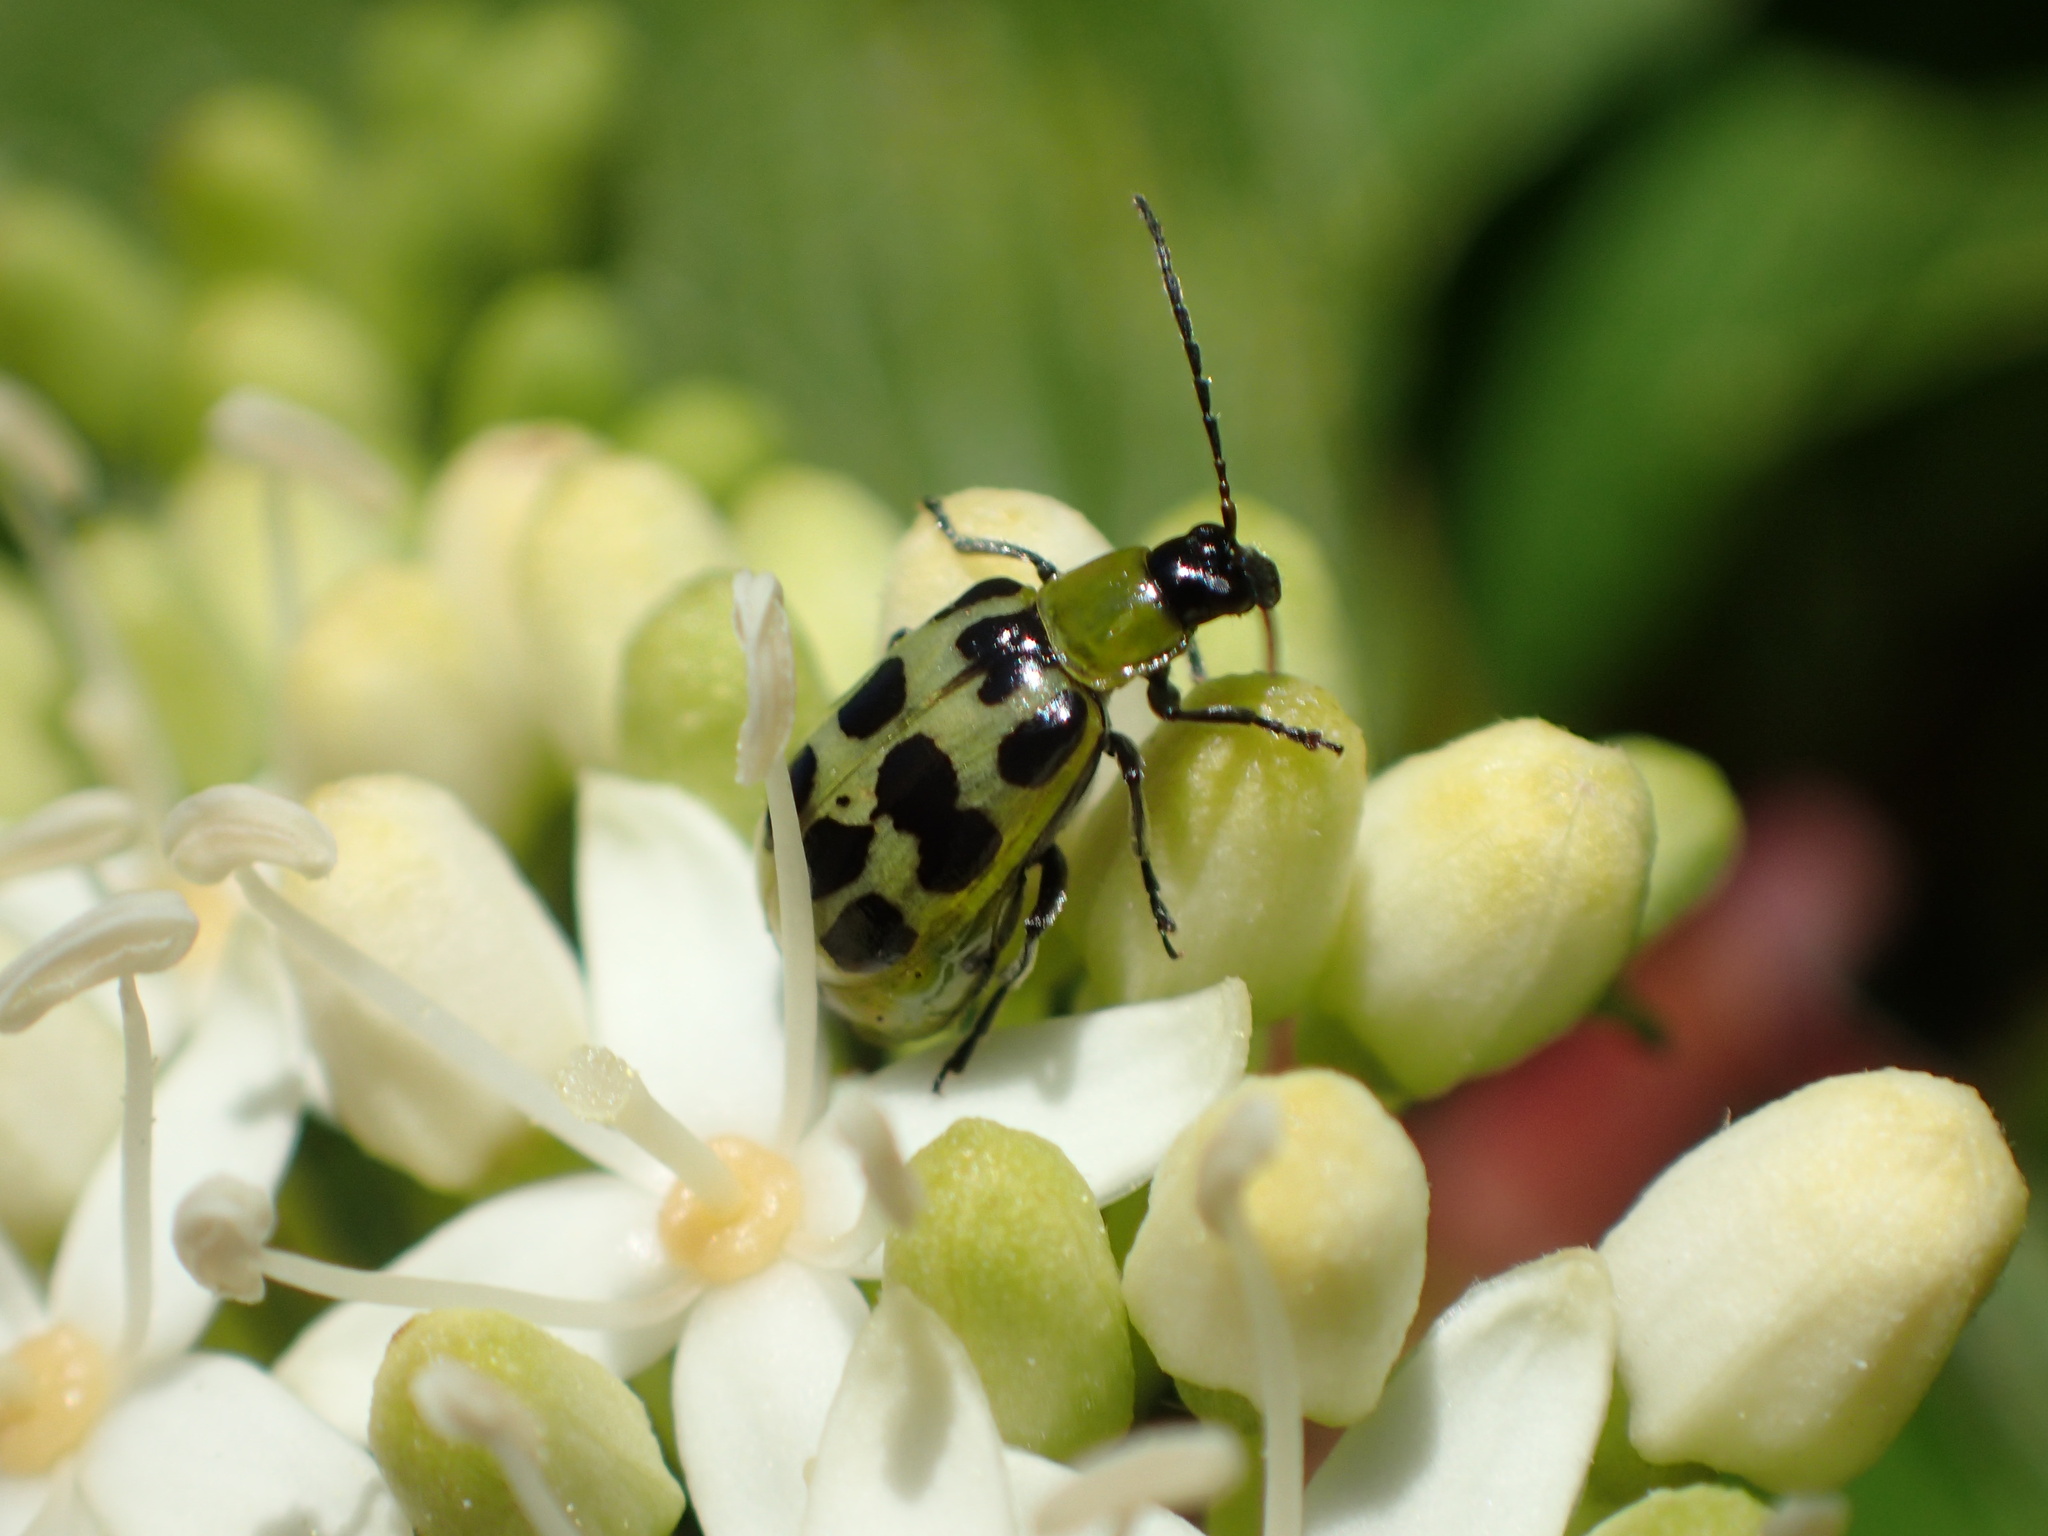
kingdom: Animalia
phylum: Arthropoda
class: Insecta
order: Coleoptera
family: Chrysomelidae
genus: Diabrotica
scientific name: Diabrotica undecimpunctata
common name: Spotted cucumber beetle
